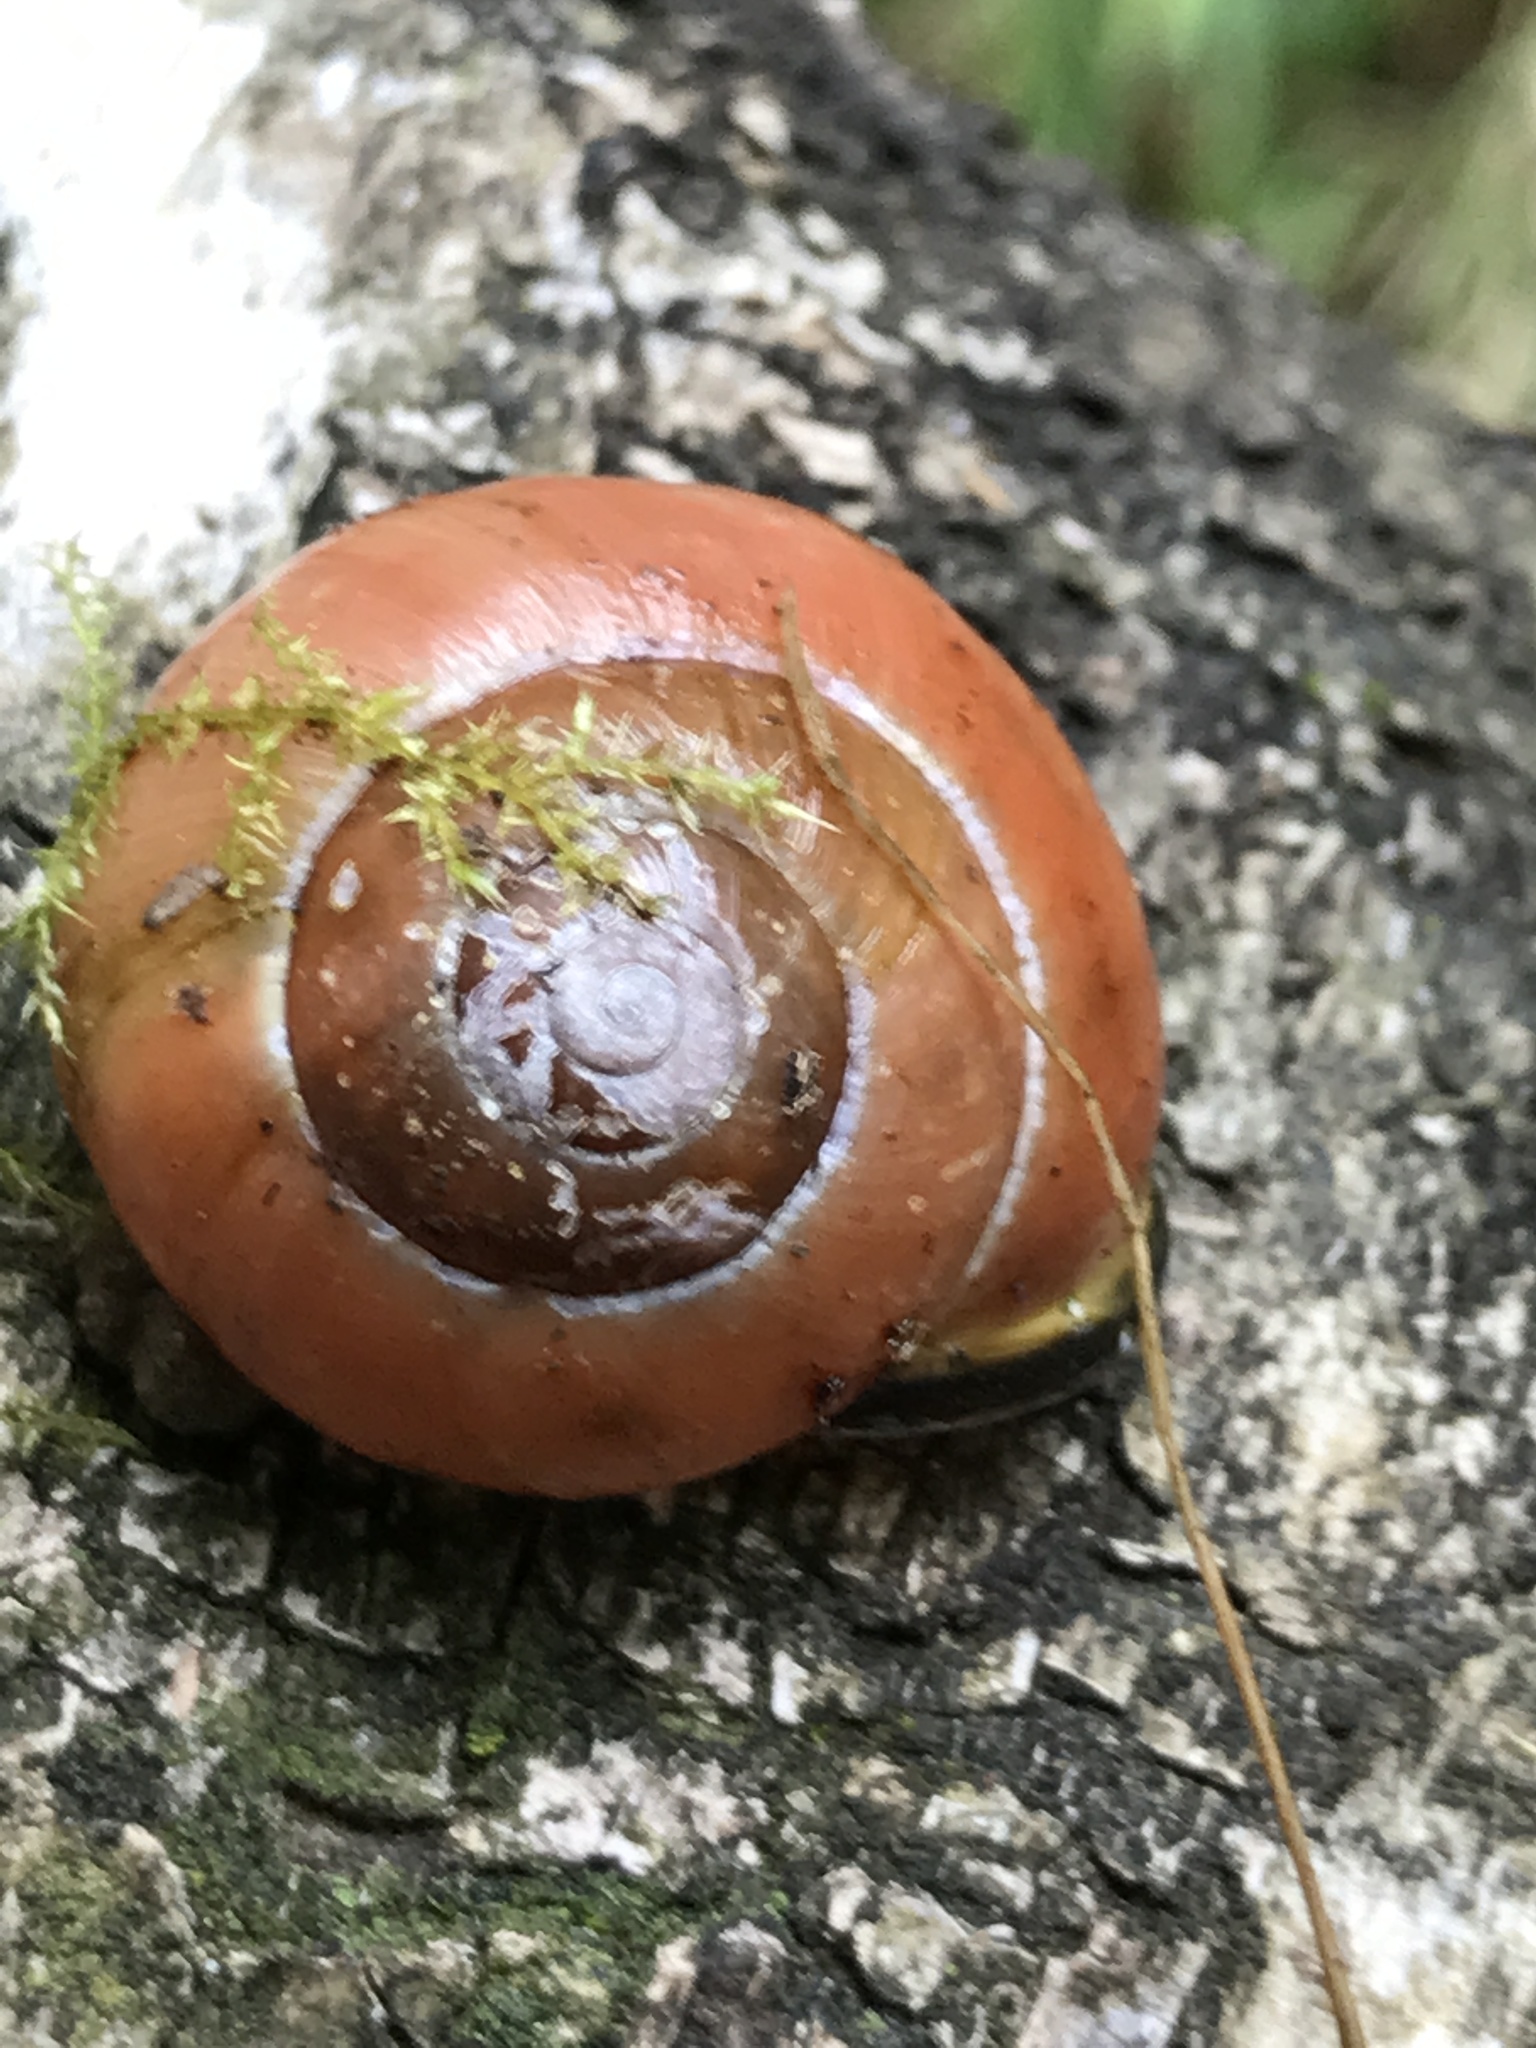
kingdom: Animalia
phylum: Mollusca
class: Gastropoda
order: Stylommatophora
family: Helicidae
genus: Cepaea
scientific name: Cepaea nemoralis
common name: Grovesnail
